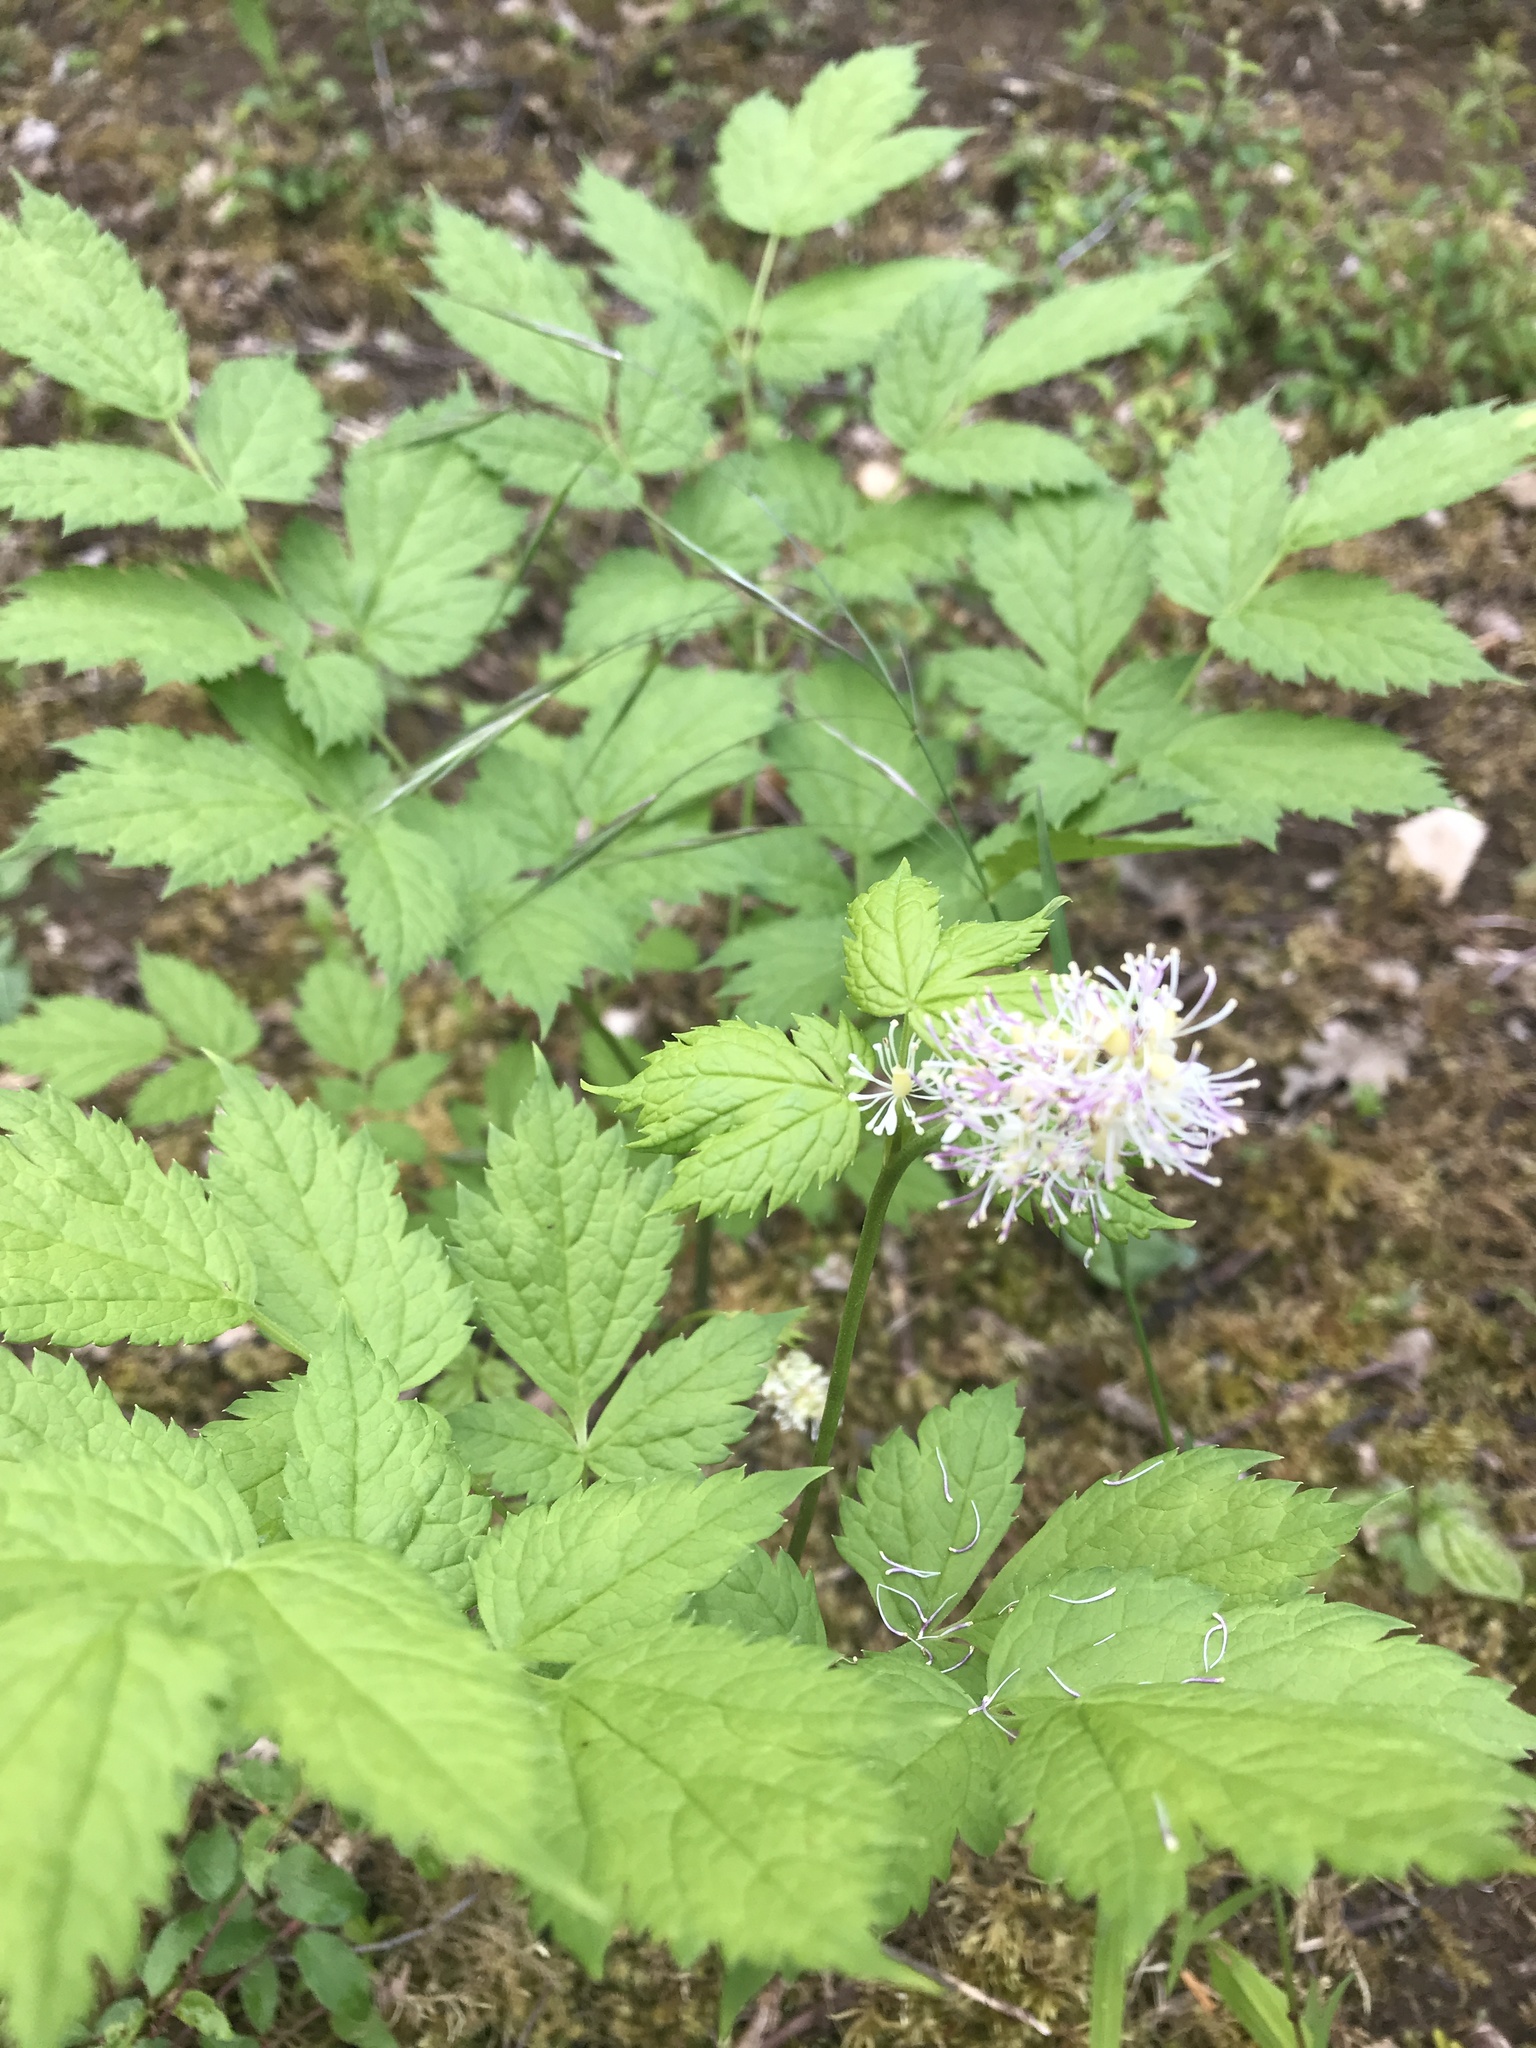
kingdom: Plantae
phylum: Tracheophyta
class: Magnoliopsida
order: Ranunculales
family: Ranunculaceae
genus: Actaea
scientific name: Actaea spicata
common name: Baneberry
